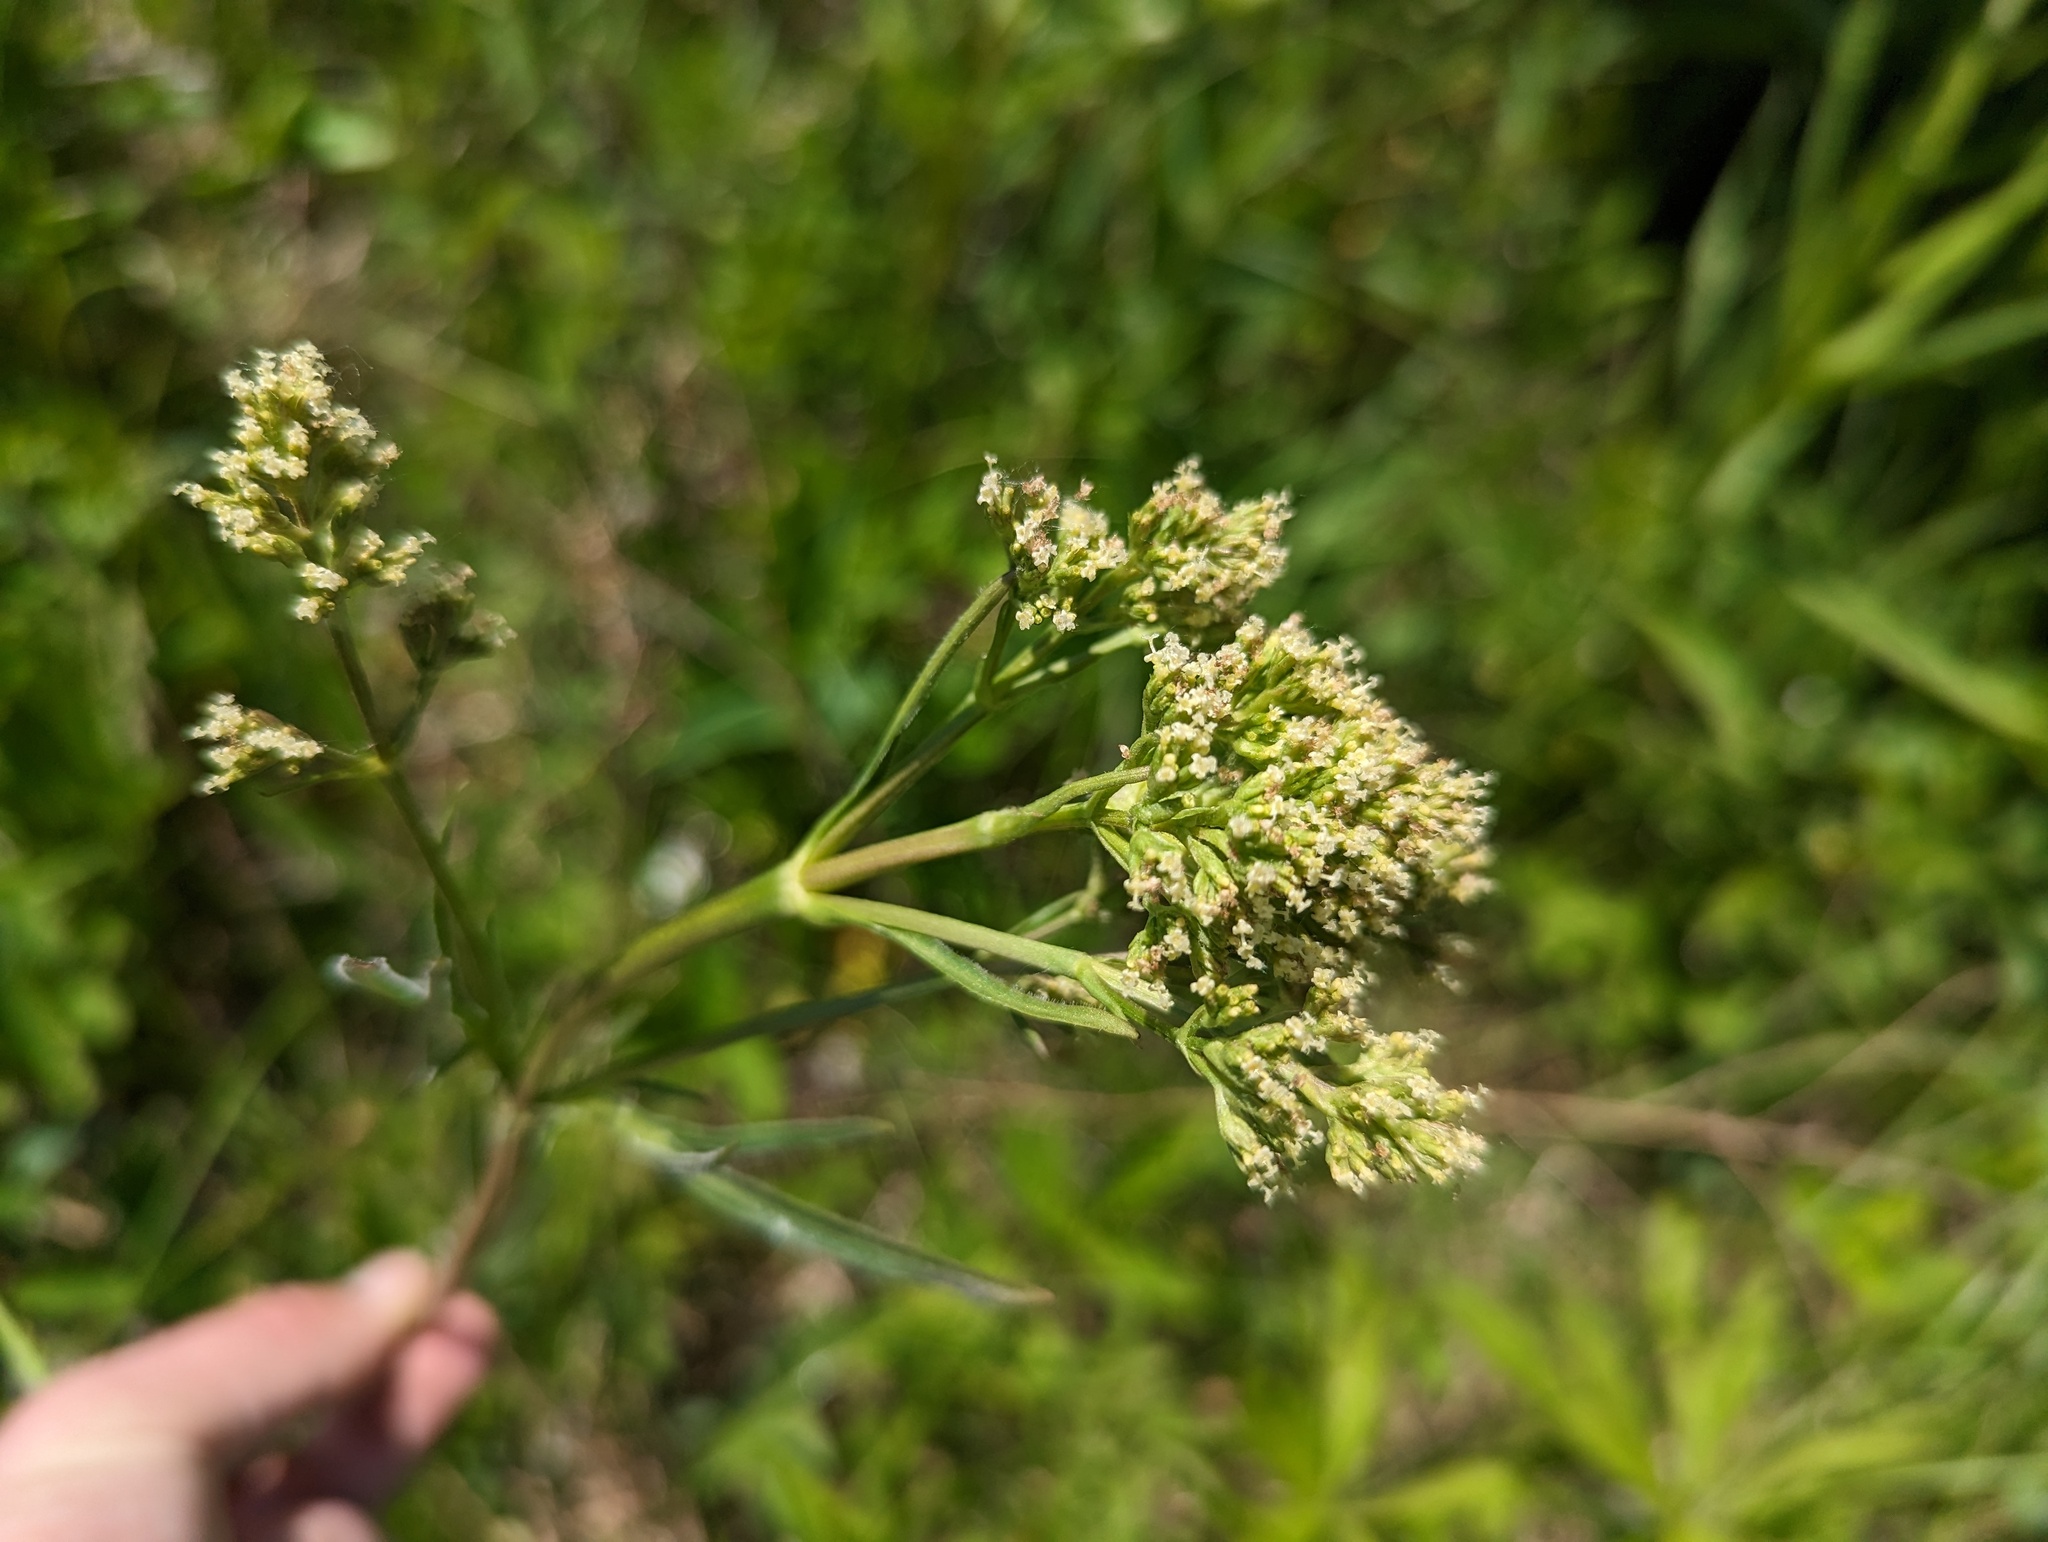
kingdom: Plantae
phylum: Tracheophyta
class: Magnoliopsida
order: Dipsacales
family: Caprifoliaceae
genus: Valeriana
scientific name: Valeriana edulis
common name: Taproot valerian
